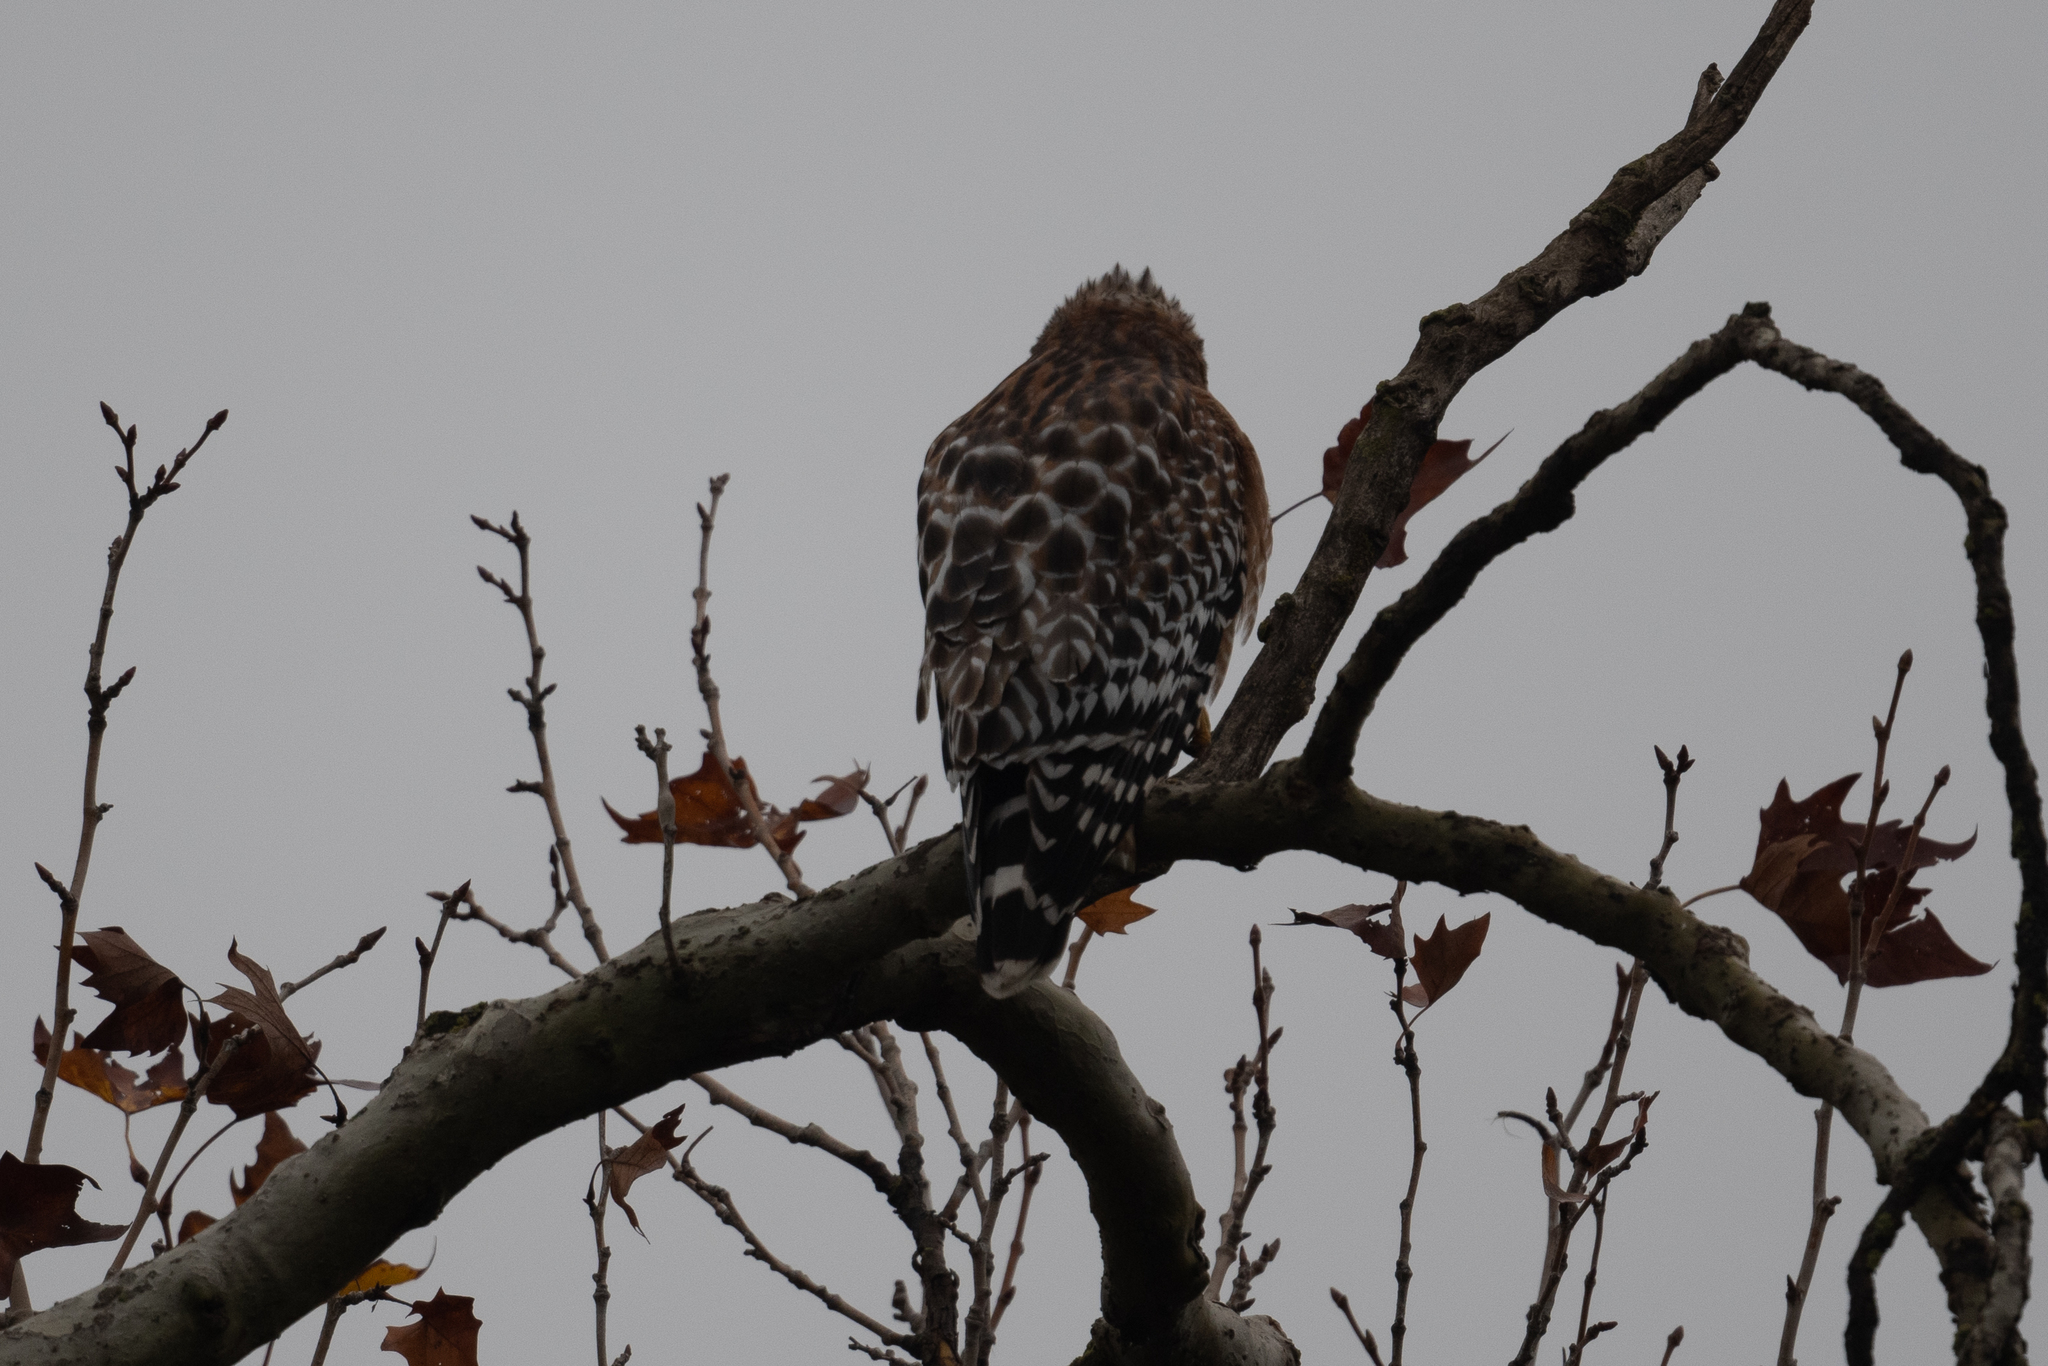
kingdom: Animalia
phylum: Chordata
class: Aves
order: Accipitriformes
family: Accipitridae
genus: Buteo
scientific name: Buteo lineatus
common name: Red-shouldered hawk
